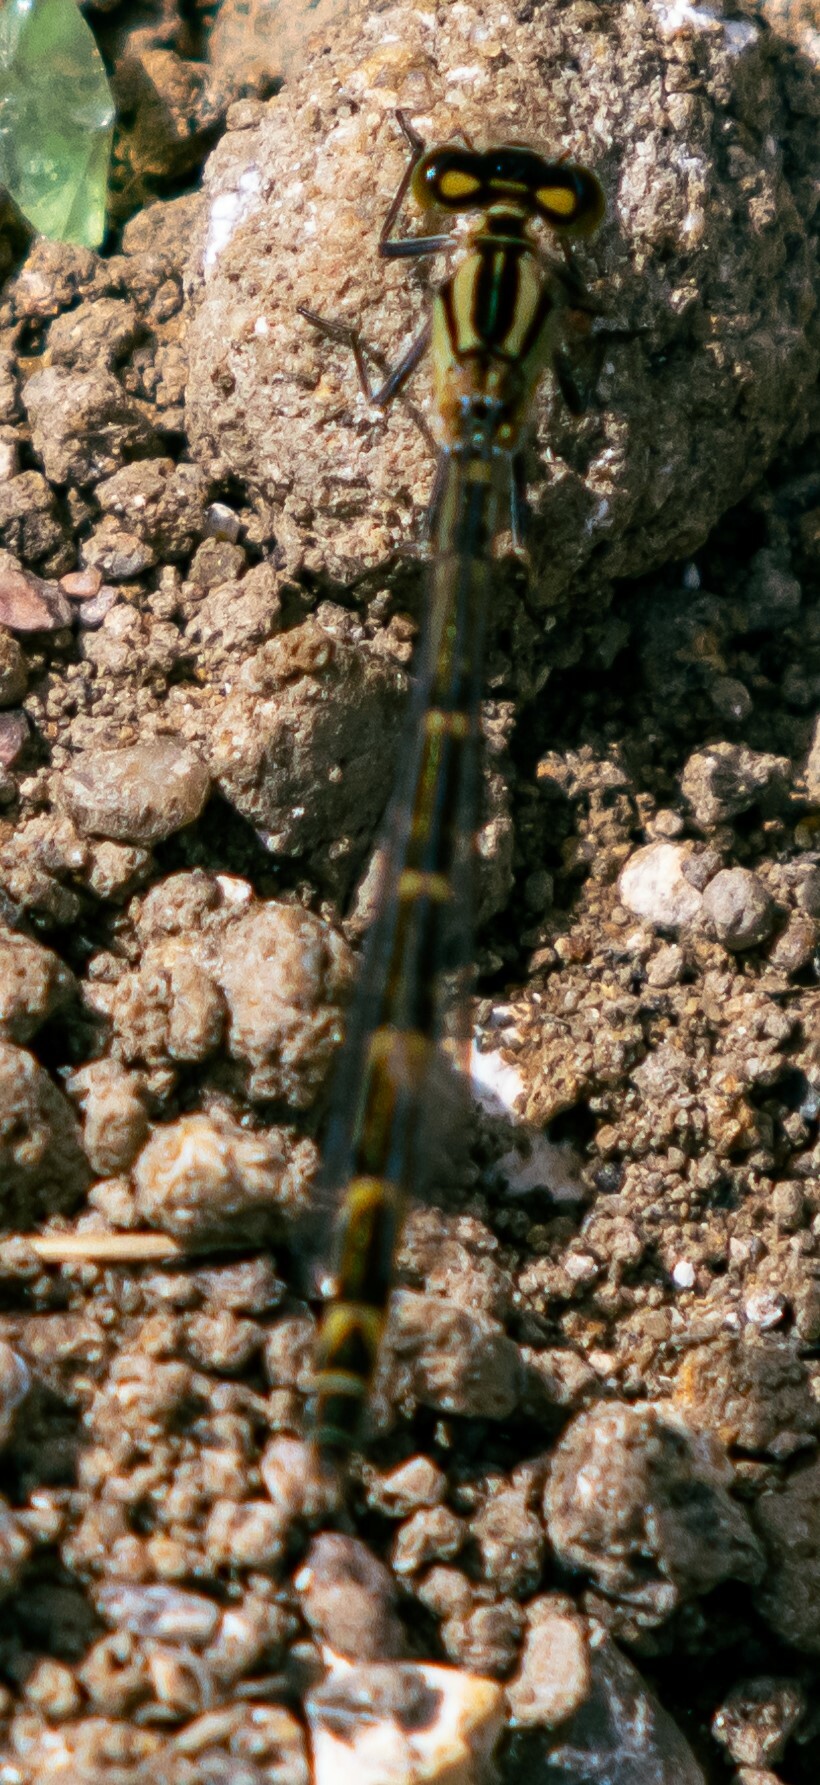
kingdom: Animalia
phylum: Arthropoda
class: Insecta
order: Odonata
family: Coenagrionidae
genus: Enallagma
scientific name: Enallagma cyathigerum
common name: Common blue damselfly
